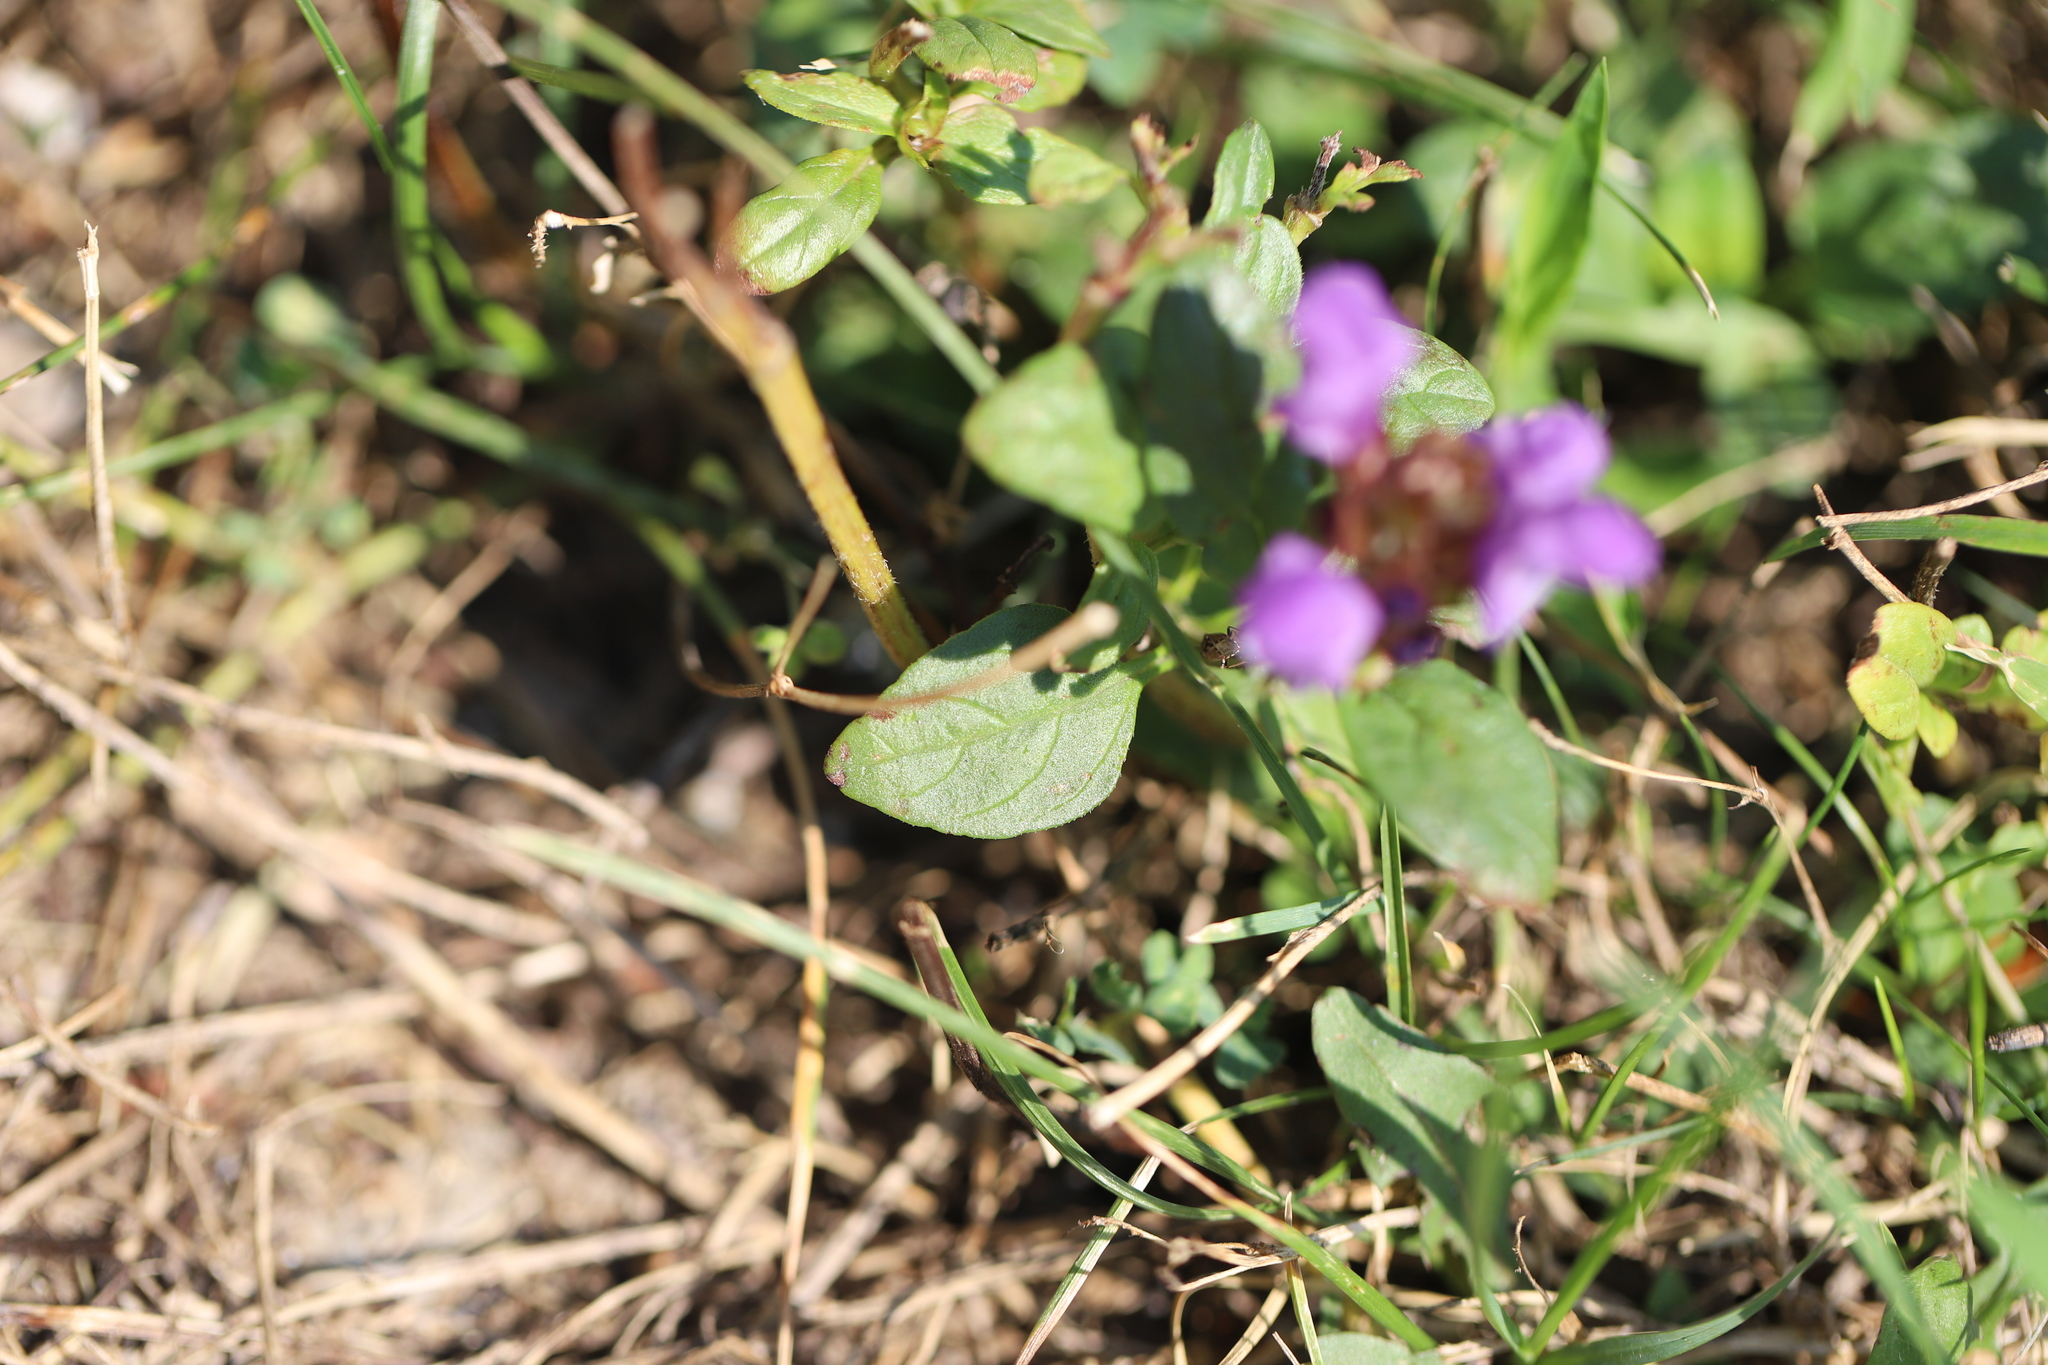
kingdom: Plantae
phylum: Tracheophyta
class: Magnoliopsida
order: Lamiales
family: Lamiaceae
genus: Prunella
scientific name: Prunella vulgaris
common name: Heal-all
